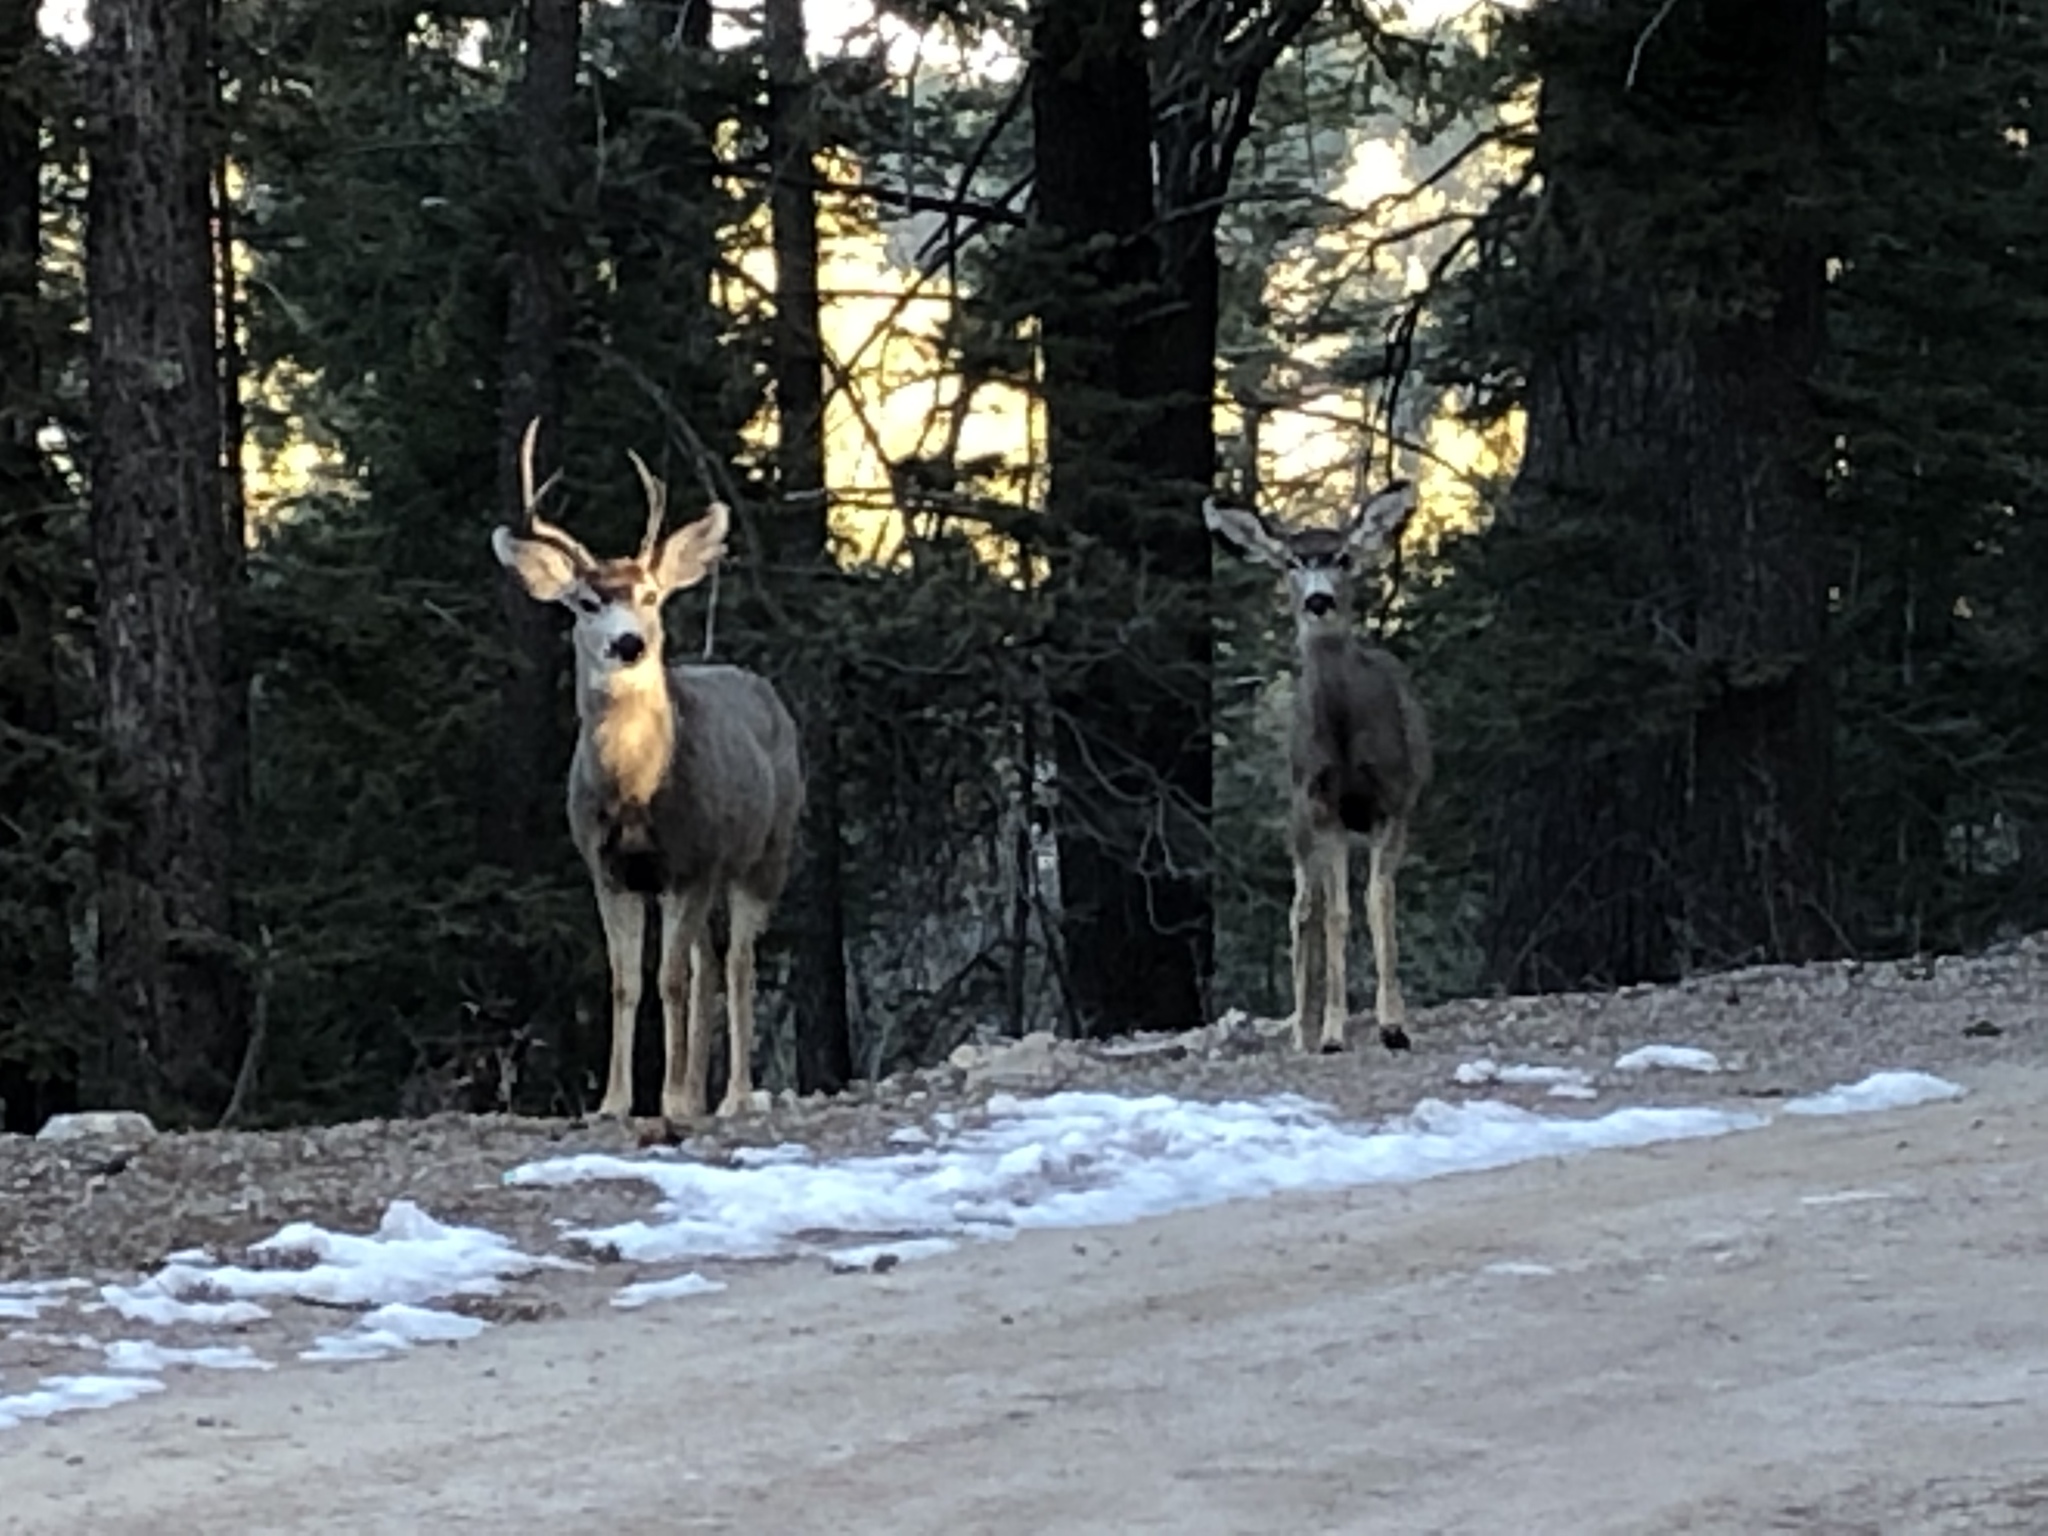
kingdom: Animalia
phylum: Chordata
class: Mammalia
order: Artiodactyla
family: Cervidae
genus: Odocoileus
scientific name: Odocoileus hemionus
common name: Mule deer
